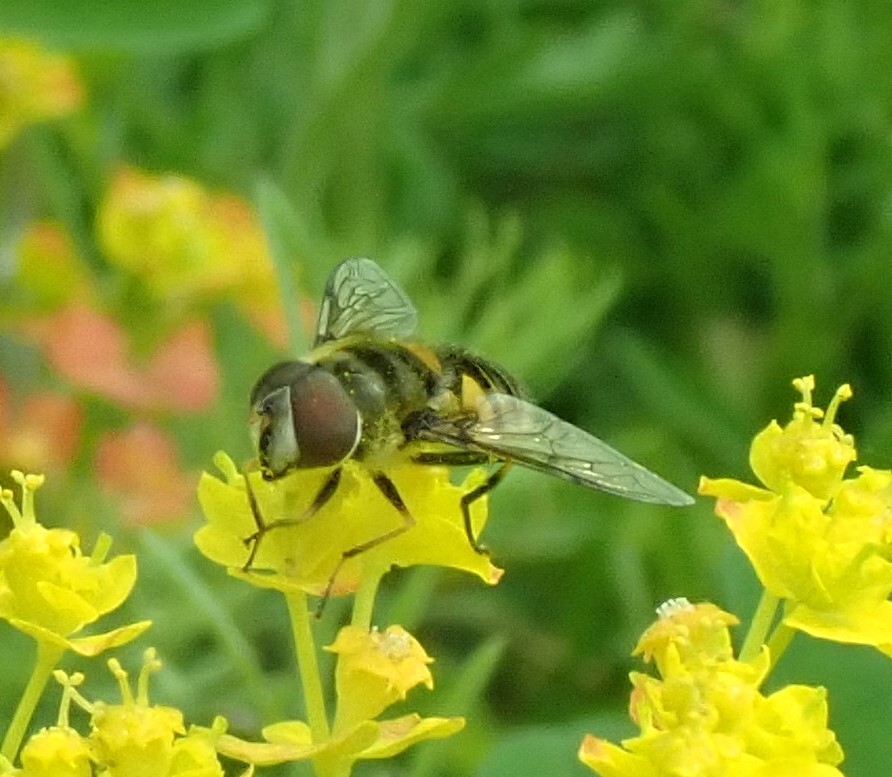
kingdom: Animalia
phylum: Arthropoda
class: Insecta
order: Diptera
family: Syrphidae
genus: Eristalis
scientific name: Eristalis transversa
